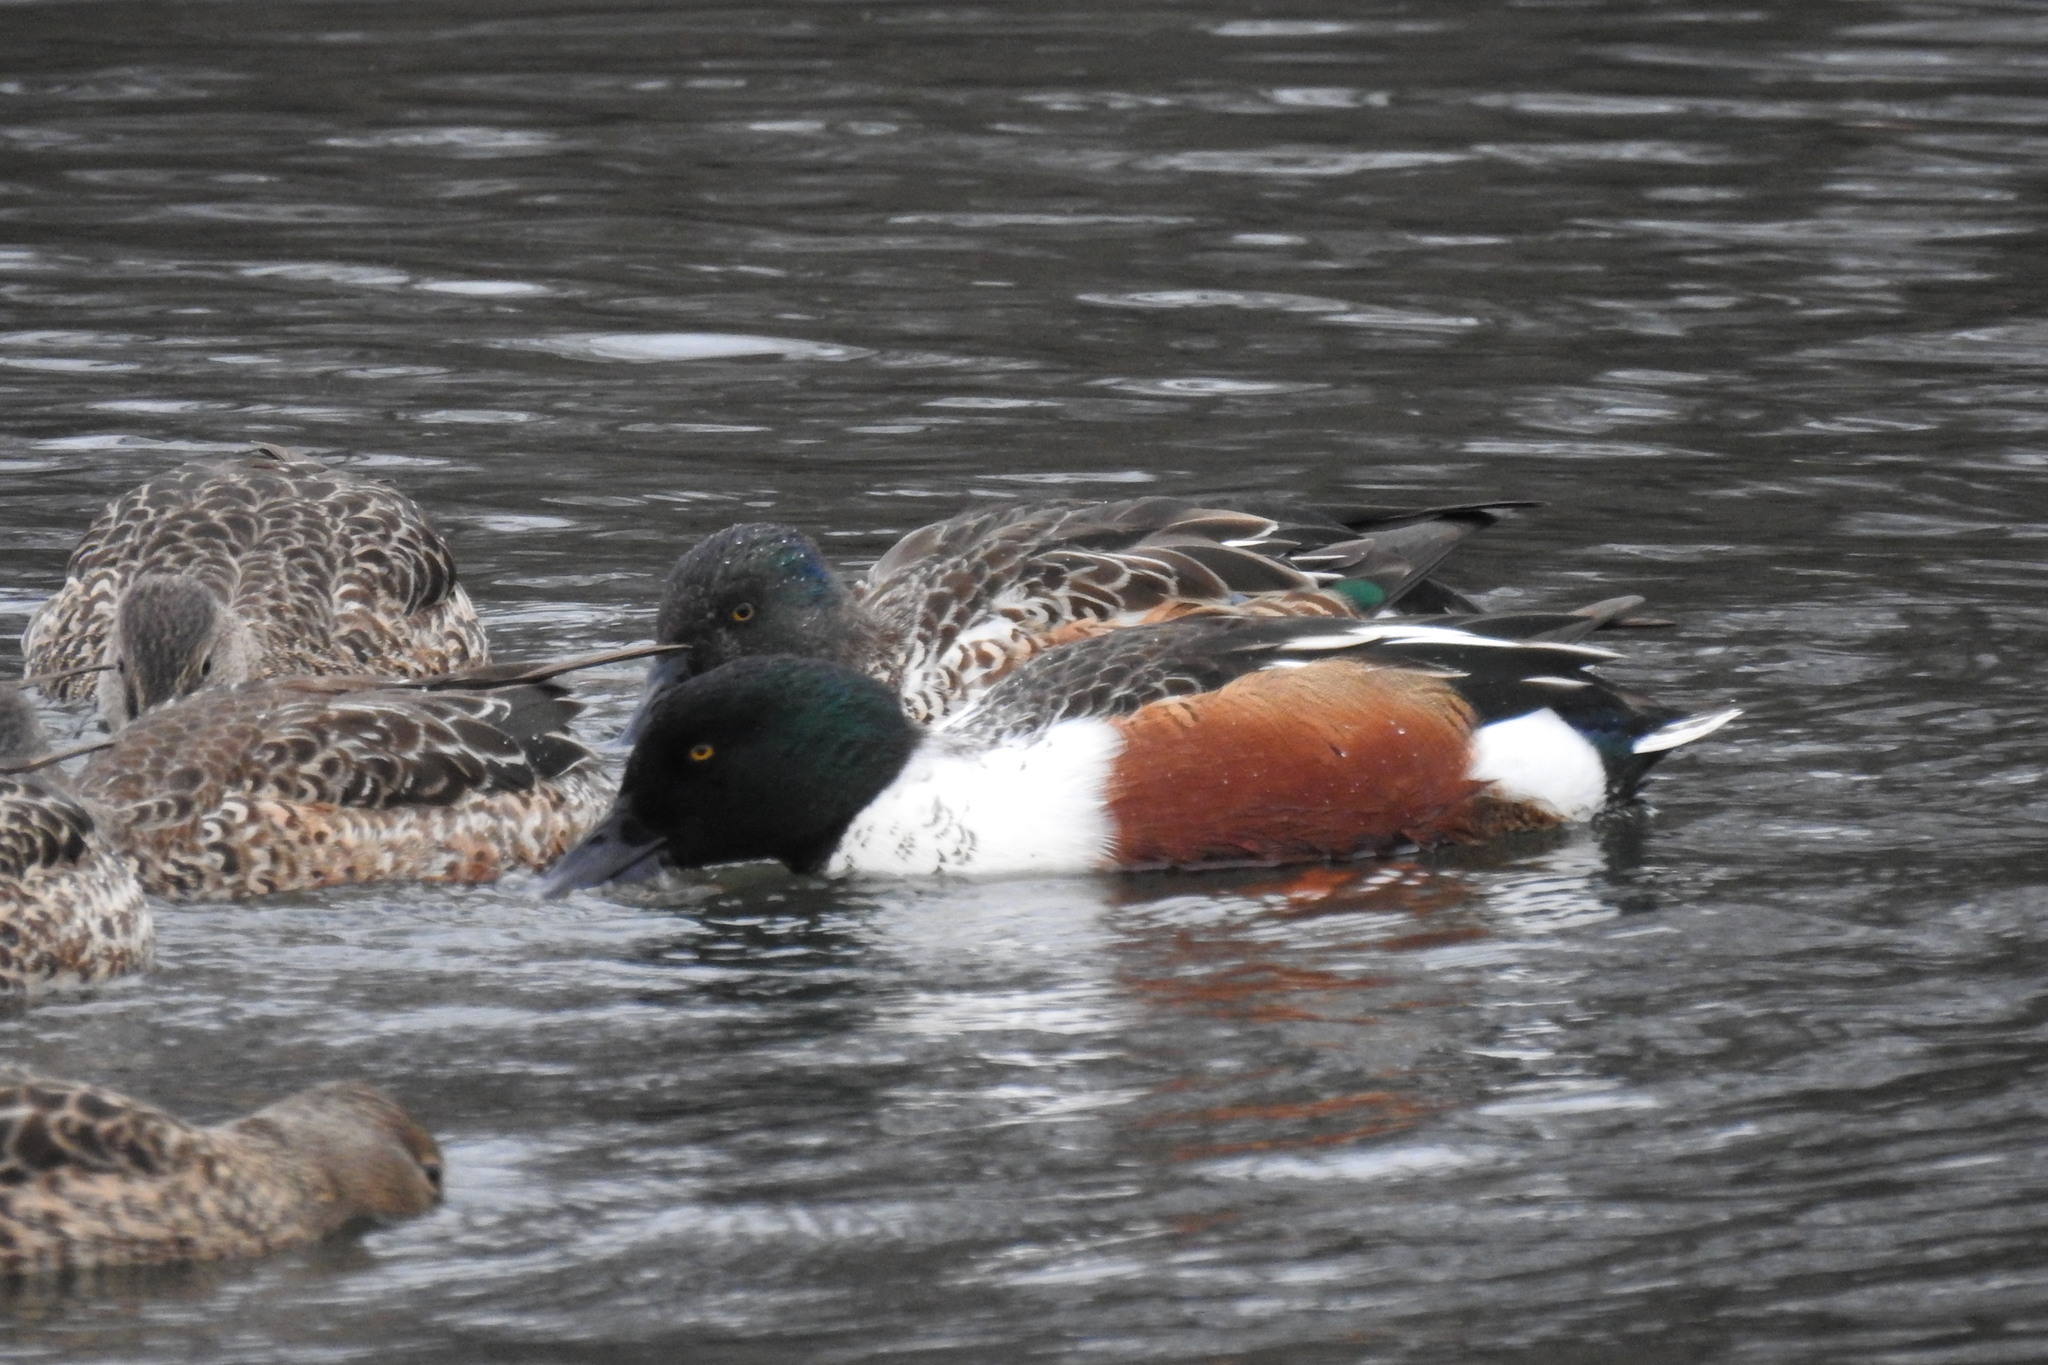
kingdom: Animalia
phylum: Chordata
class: Aves
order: Anseriformes
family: Anatidae
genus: Spatula
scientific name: Spatula clypeata
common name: Northern shoveler
